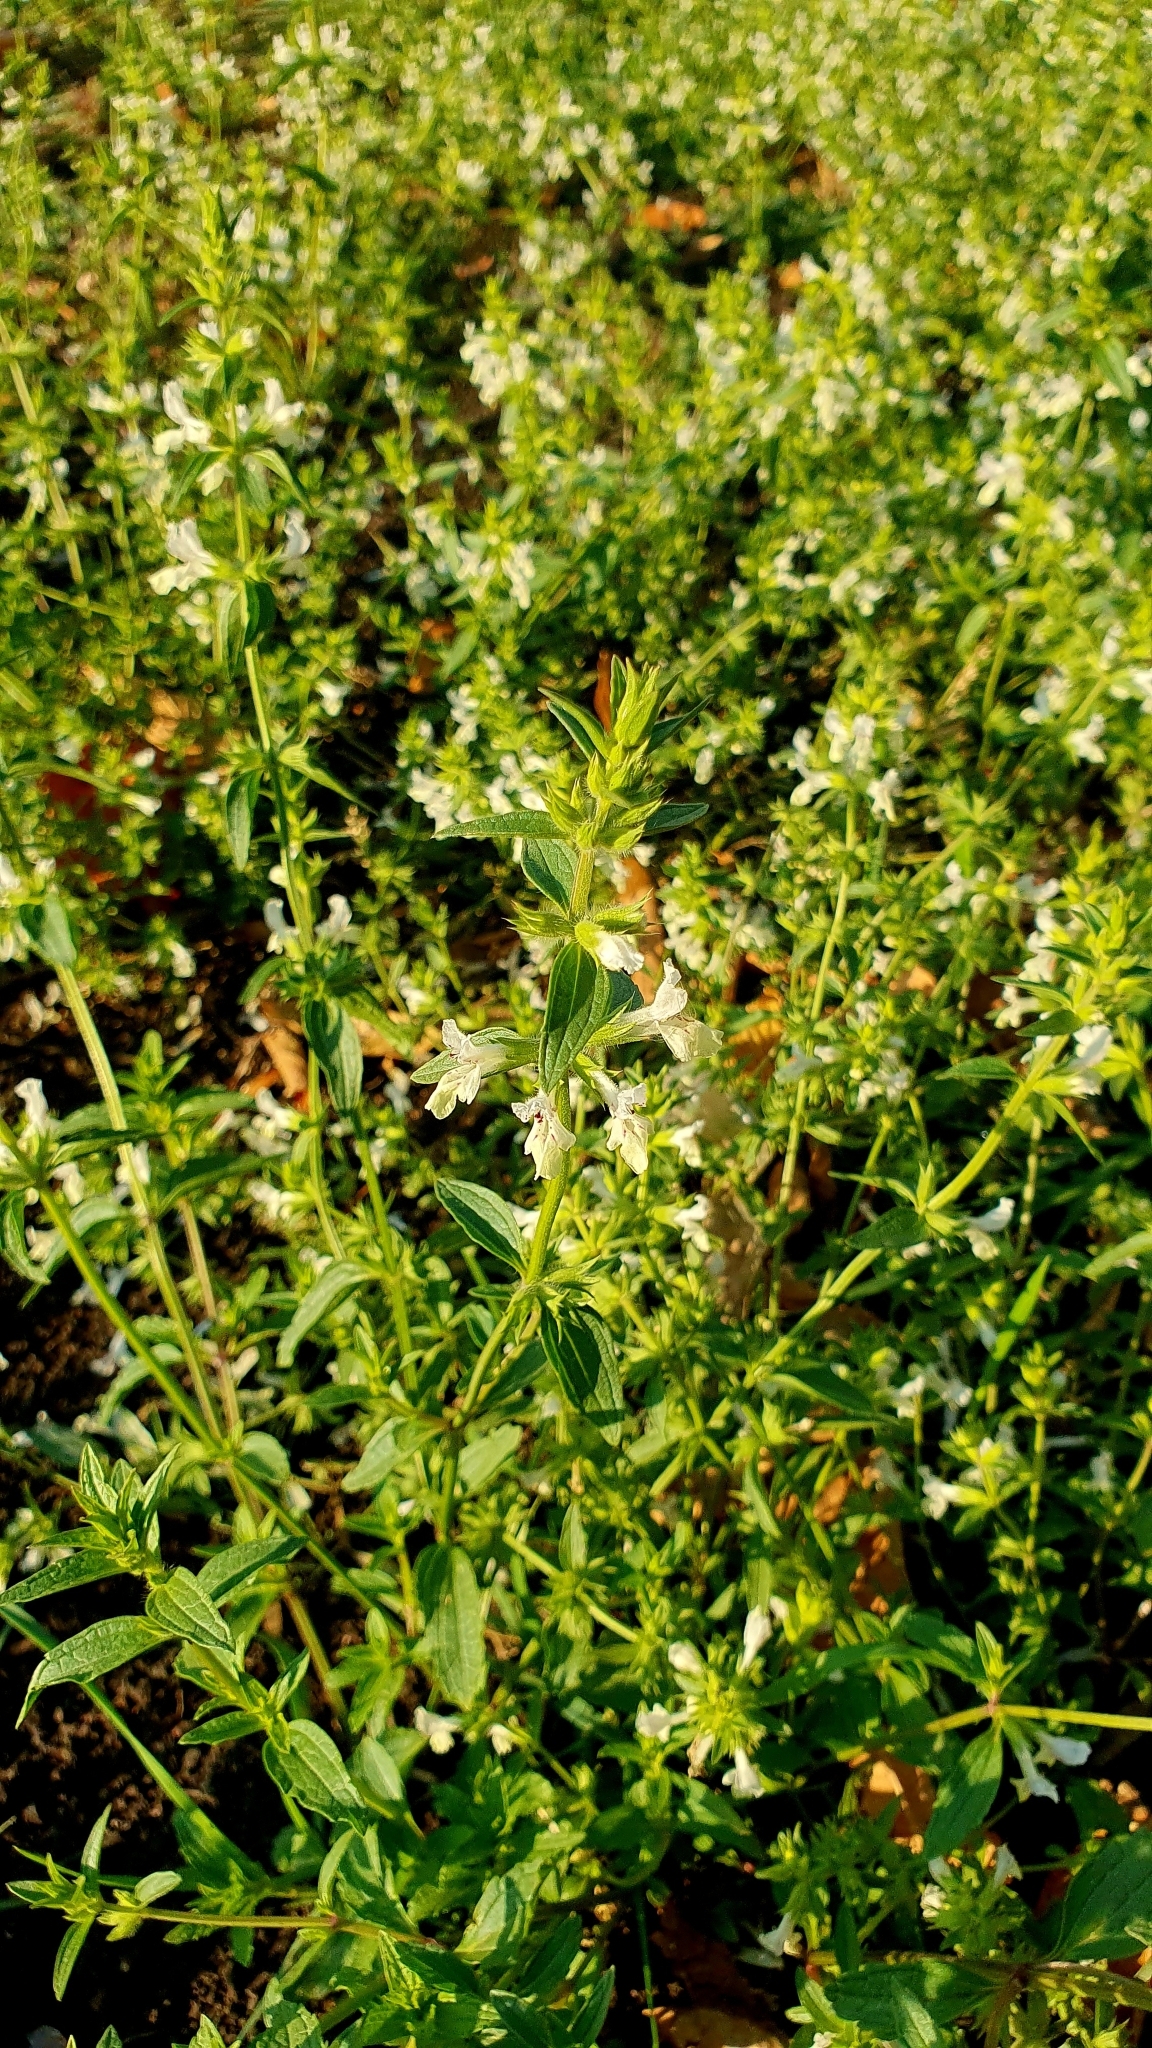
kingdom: Plantae
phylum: Tracheophyta
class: Magnoliopsida
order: Lamiales
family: Lamiaceae
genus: Stachys
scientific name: Stachys annua
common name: Annual yellow-woundwort
